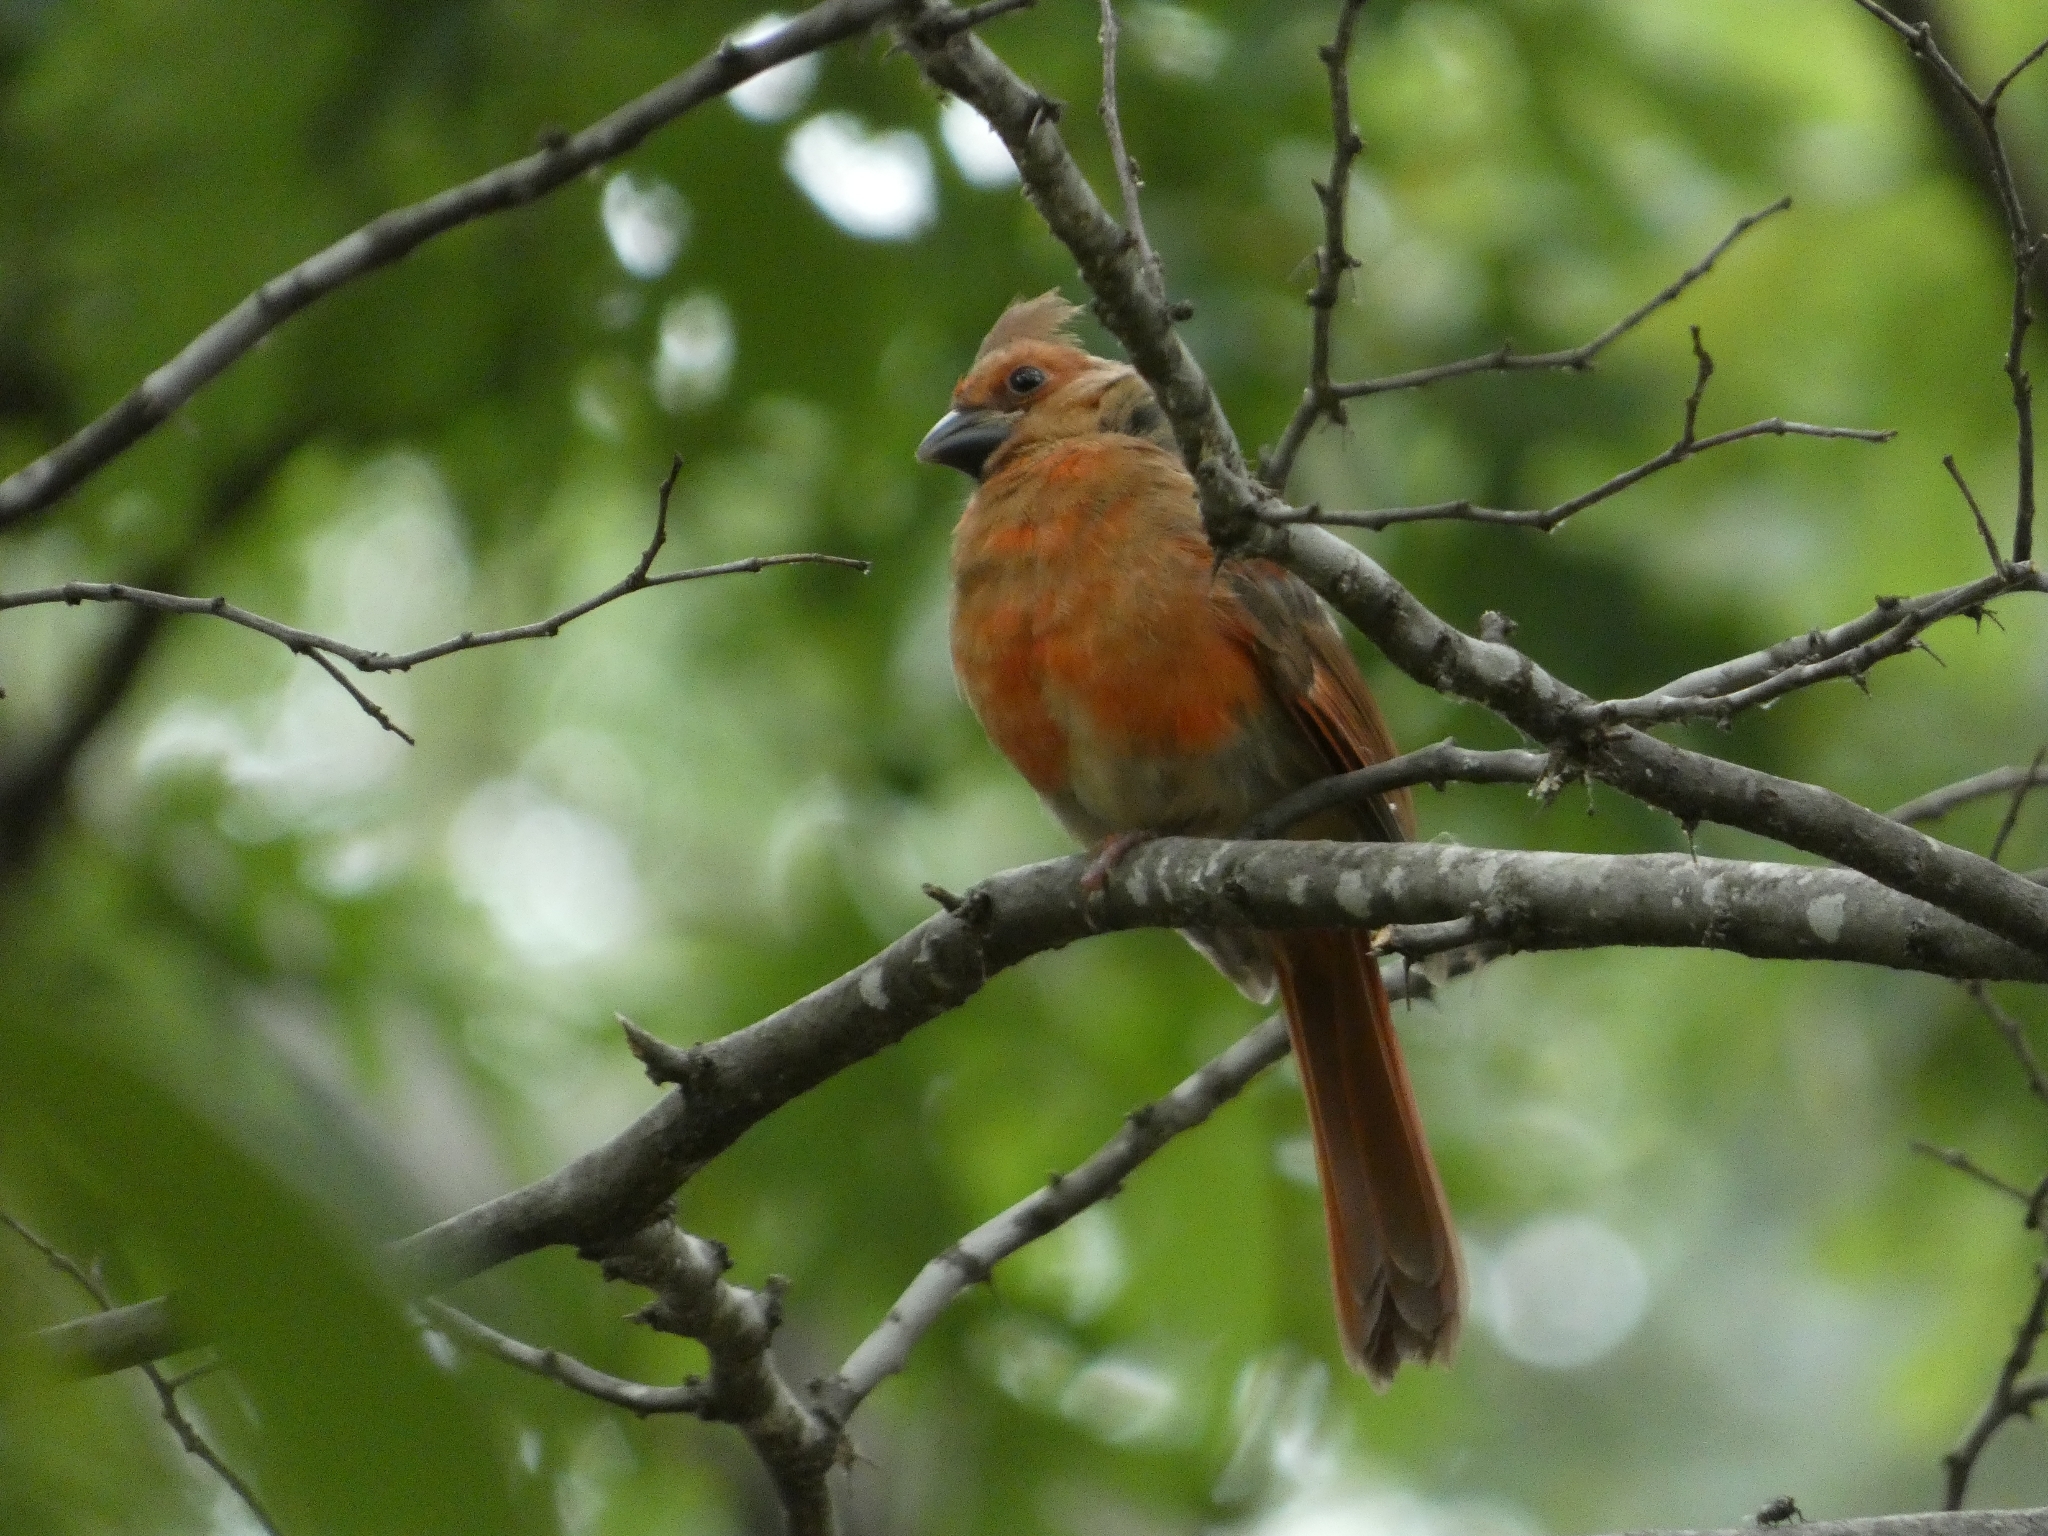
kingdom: Animalia
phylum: Chordata
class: Aves
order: Passeriformes
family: Cardinalidae
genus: Cardinalis
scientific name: Cardinalis cardinalis
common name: Northern cardinal
